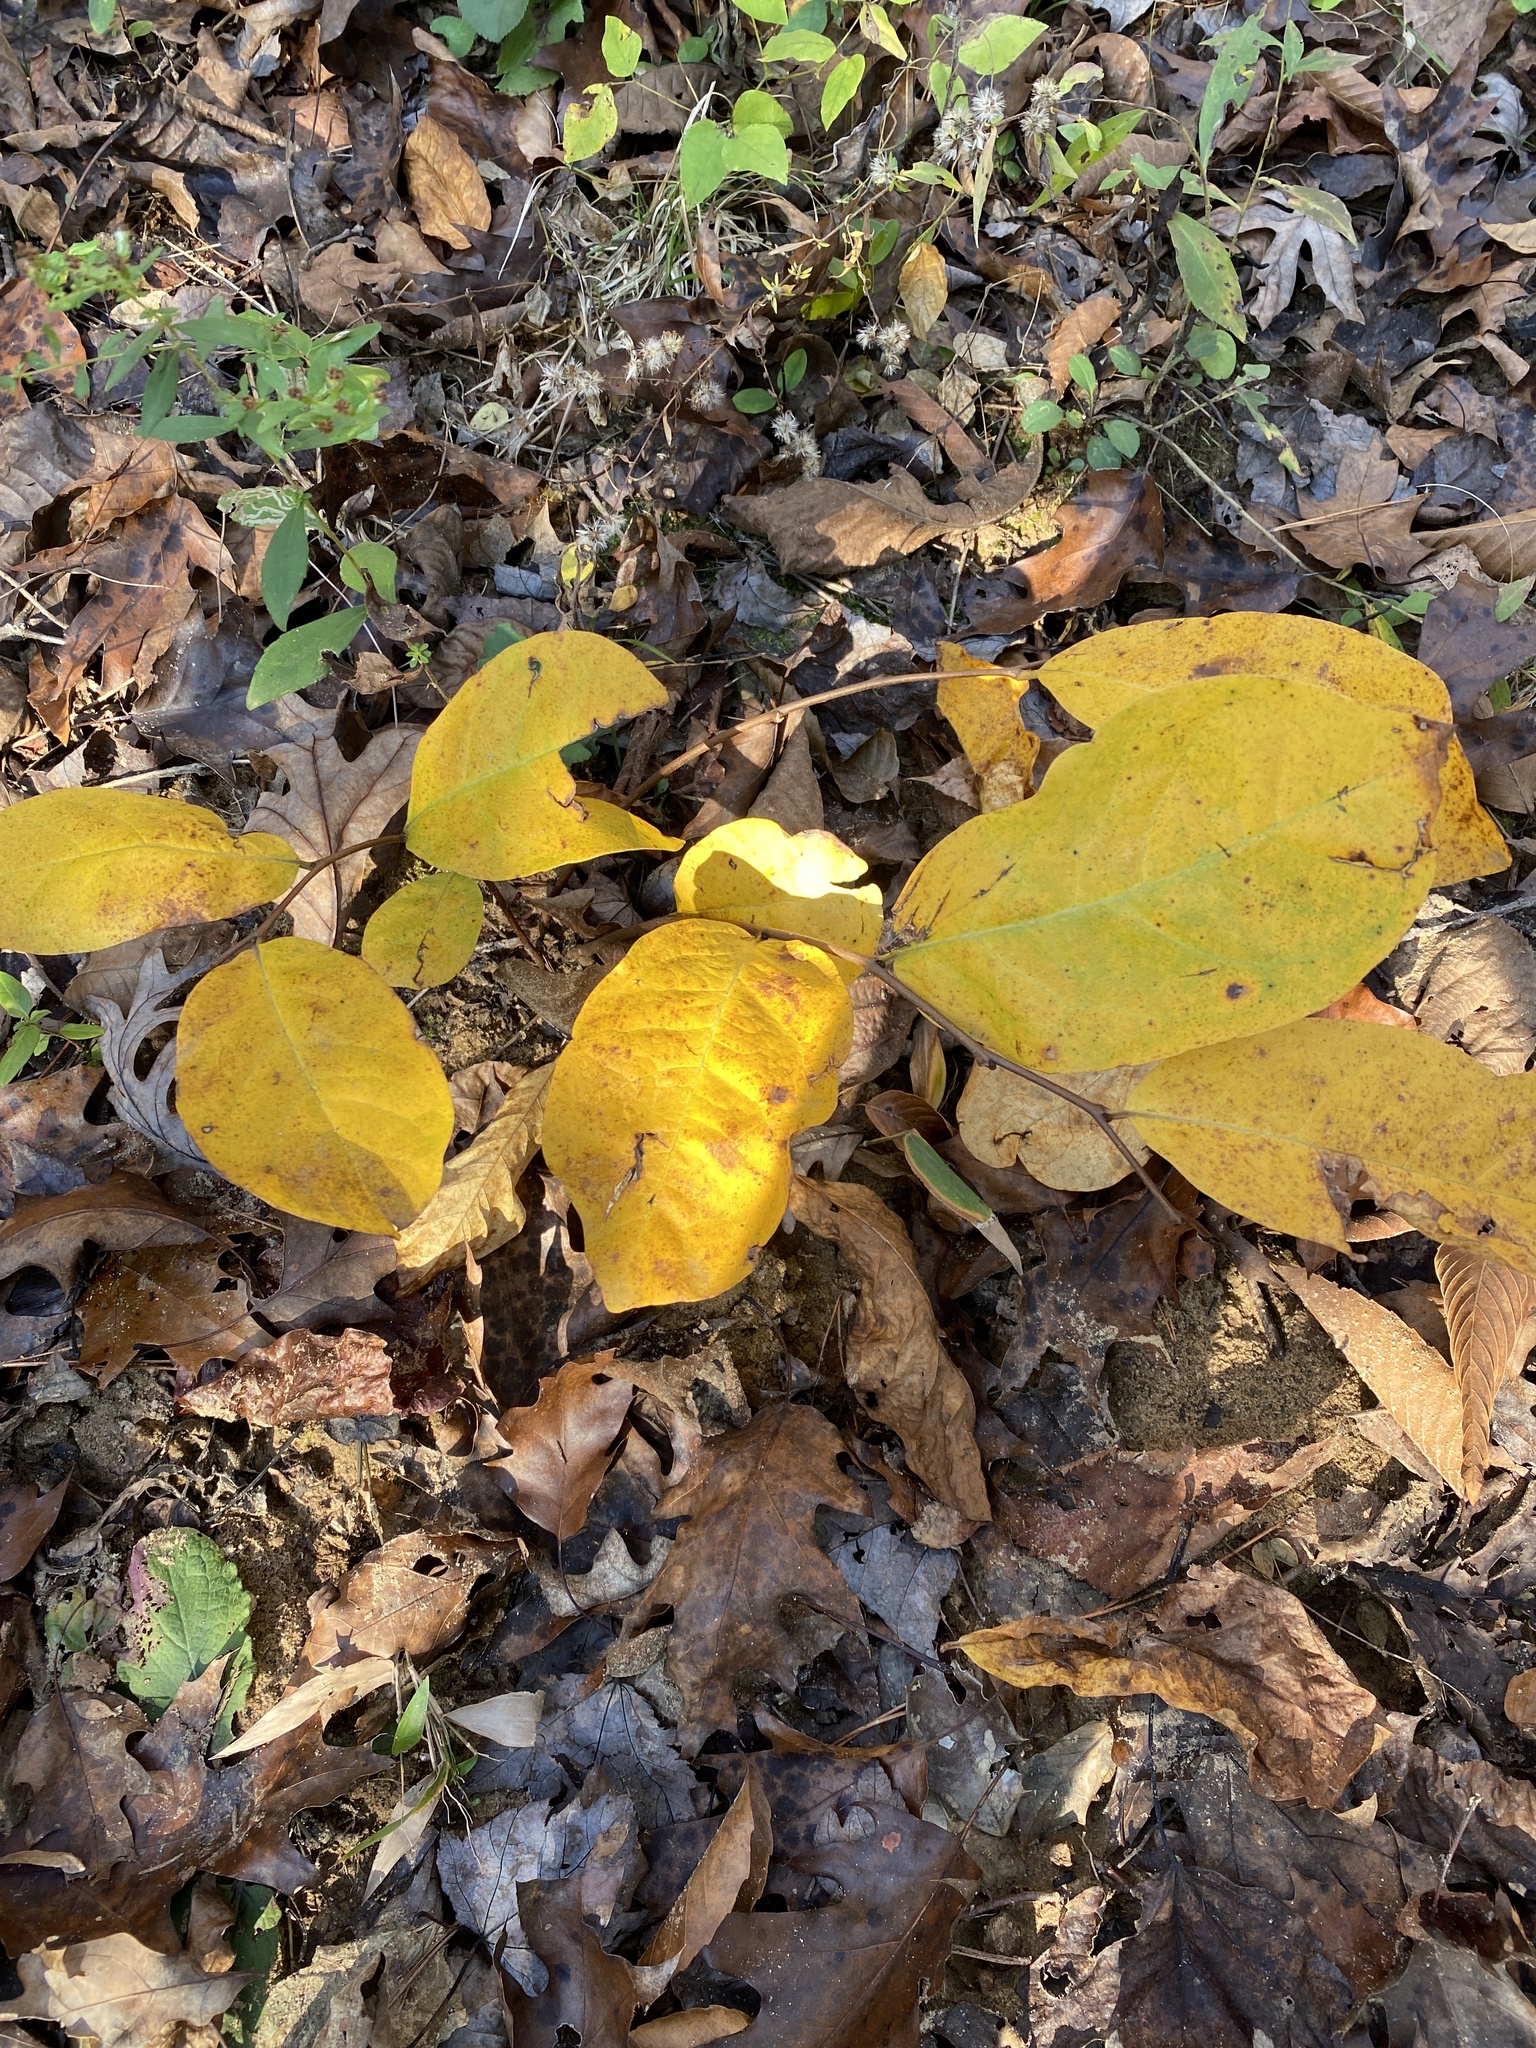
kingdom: Plantae
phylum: Tracheophyta
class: Magnoliopsida
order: Magnoliales
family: Annonaceae
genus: Asimina
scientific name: Asimina parviflora
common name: Dwarf pawpaw
